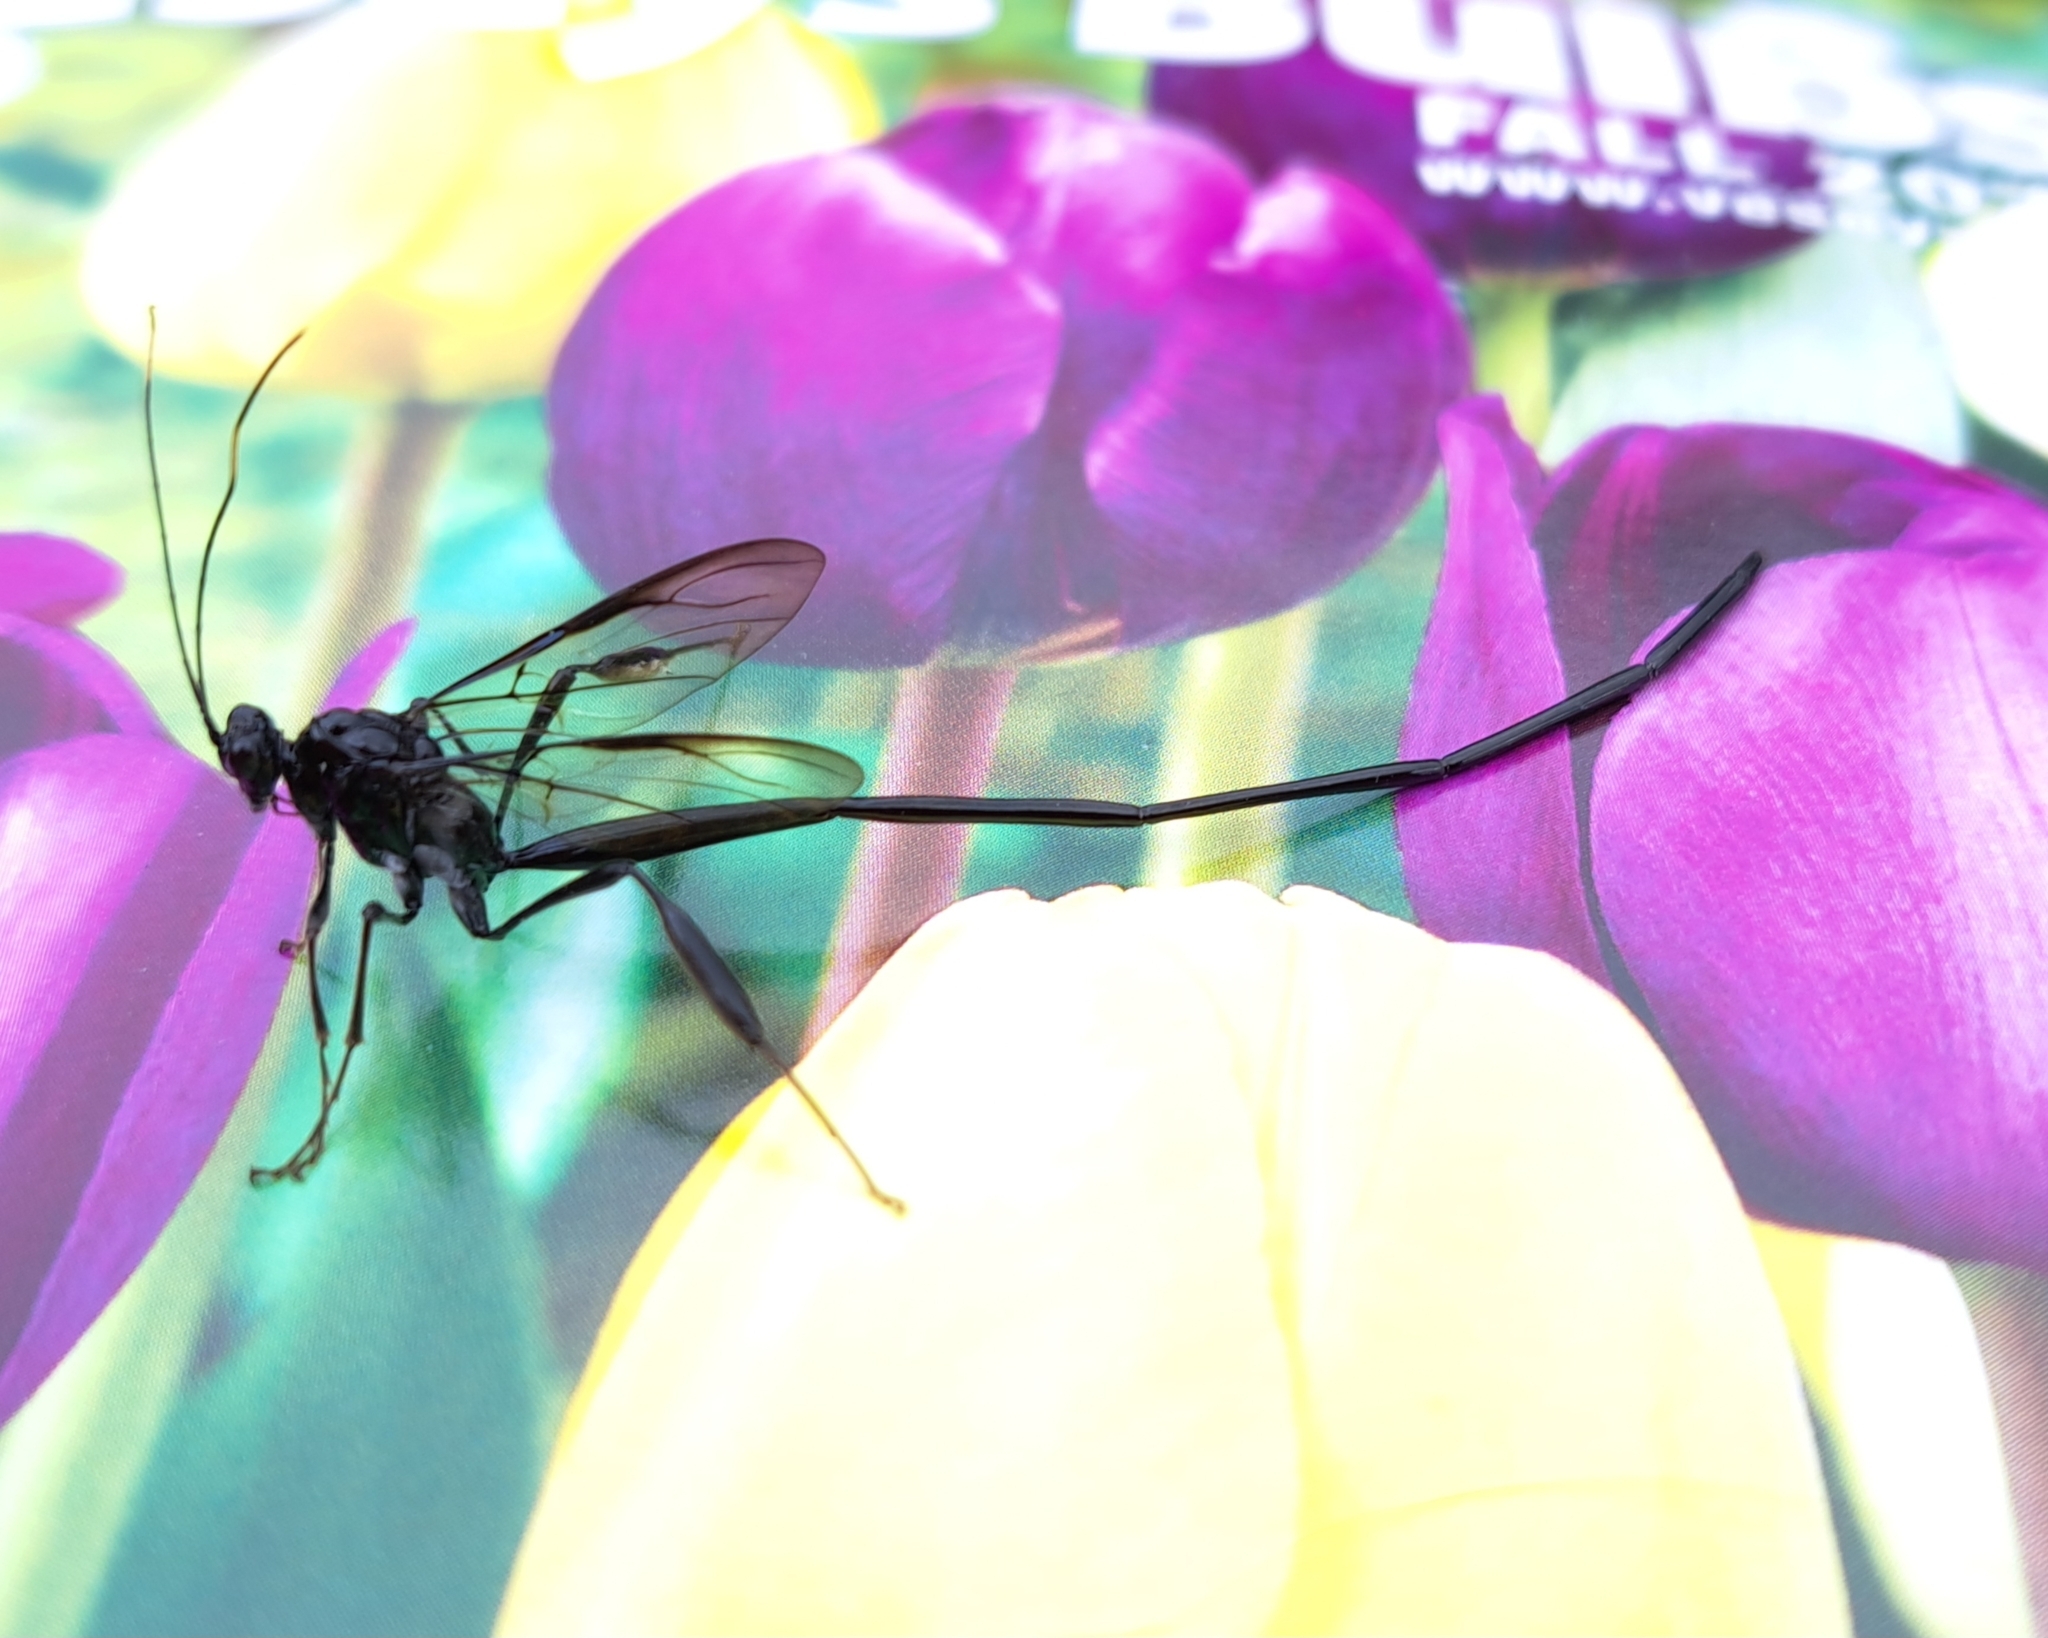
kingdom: Animalia
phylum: Arthropoda
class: Insecta
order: Hymenoptera
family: Pelecinidae
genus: Pelecinus
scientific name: Pelecinus polyturator
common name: American pelecinid wasp
